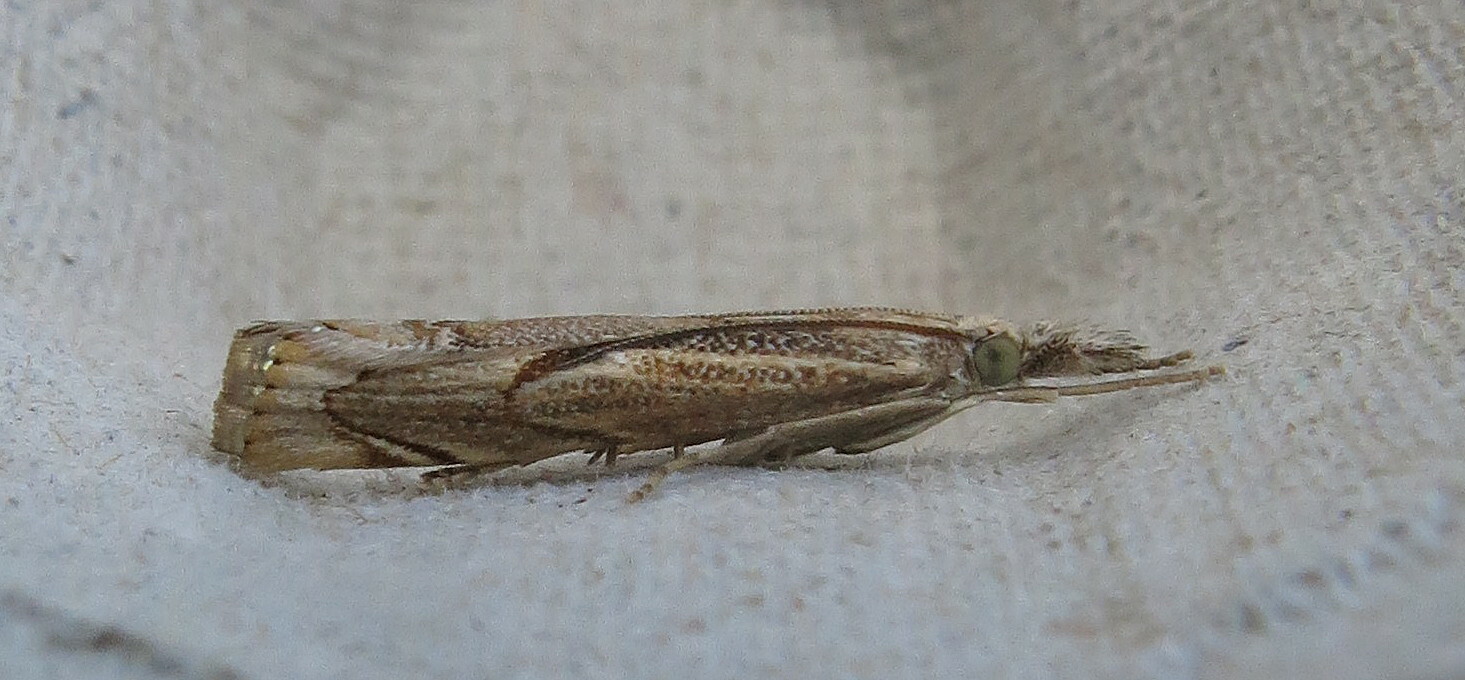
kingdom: Animalia
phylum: Arthropoda
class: Insecta
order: Lepidoptera
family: Crambidae
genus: Agriphila
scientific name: Agriphila geniculea
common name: Elbow-stripe grass-veneer
